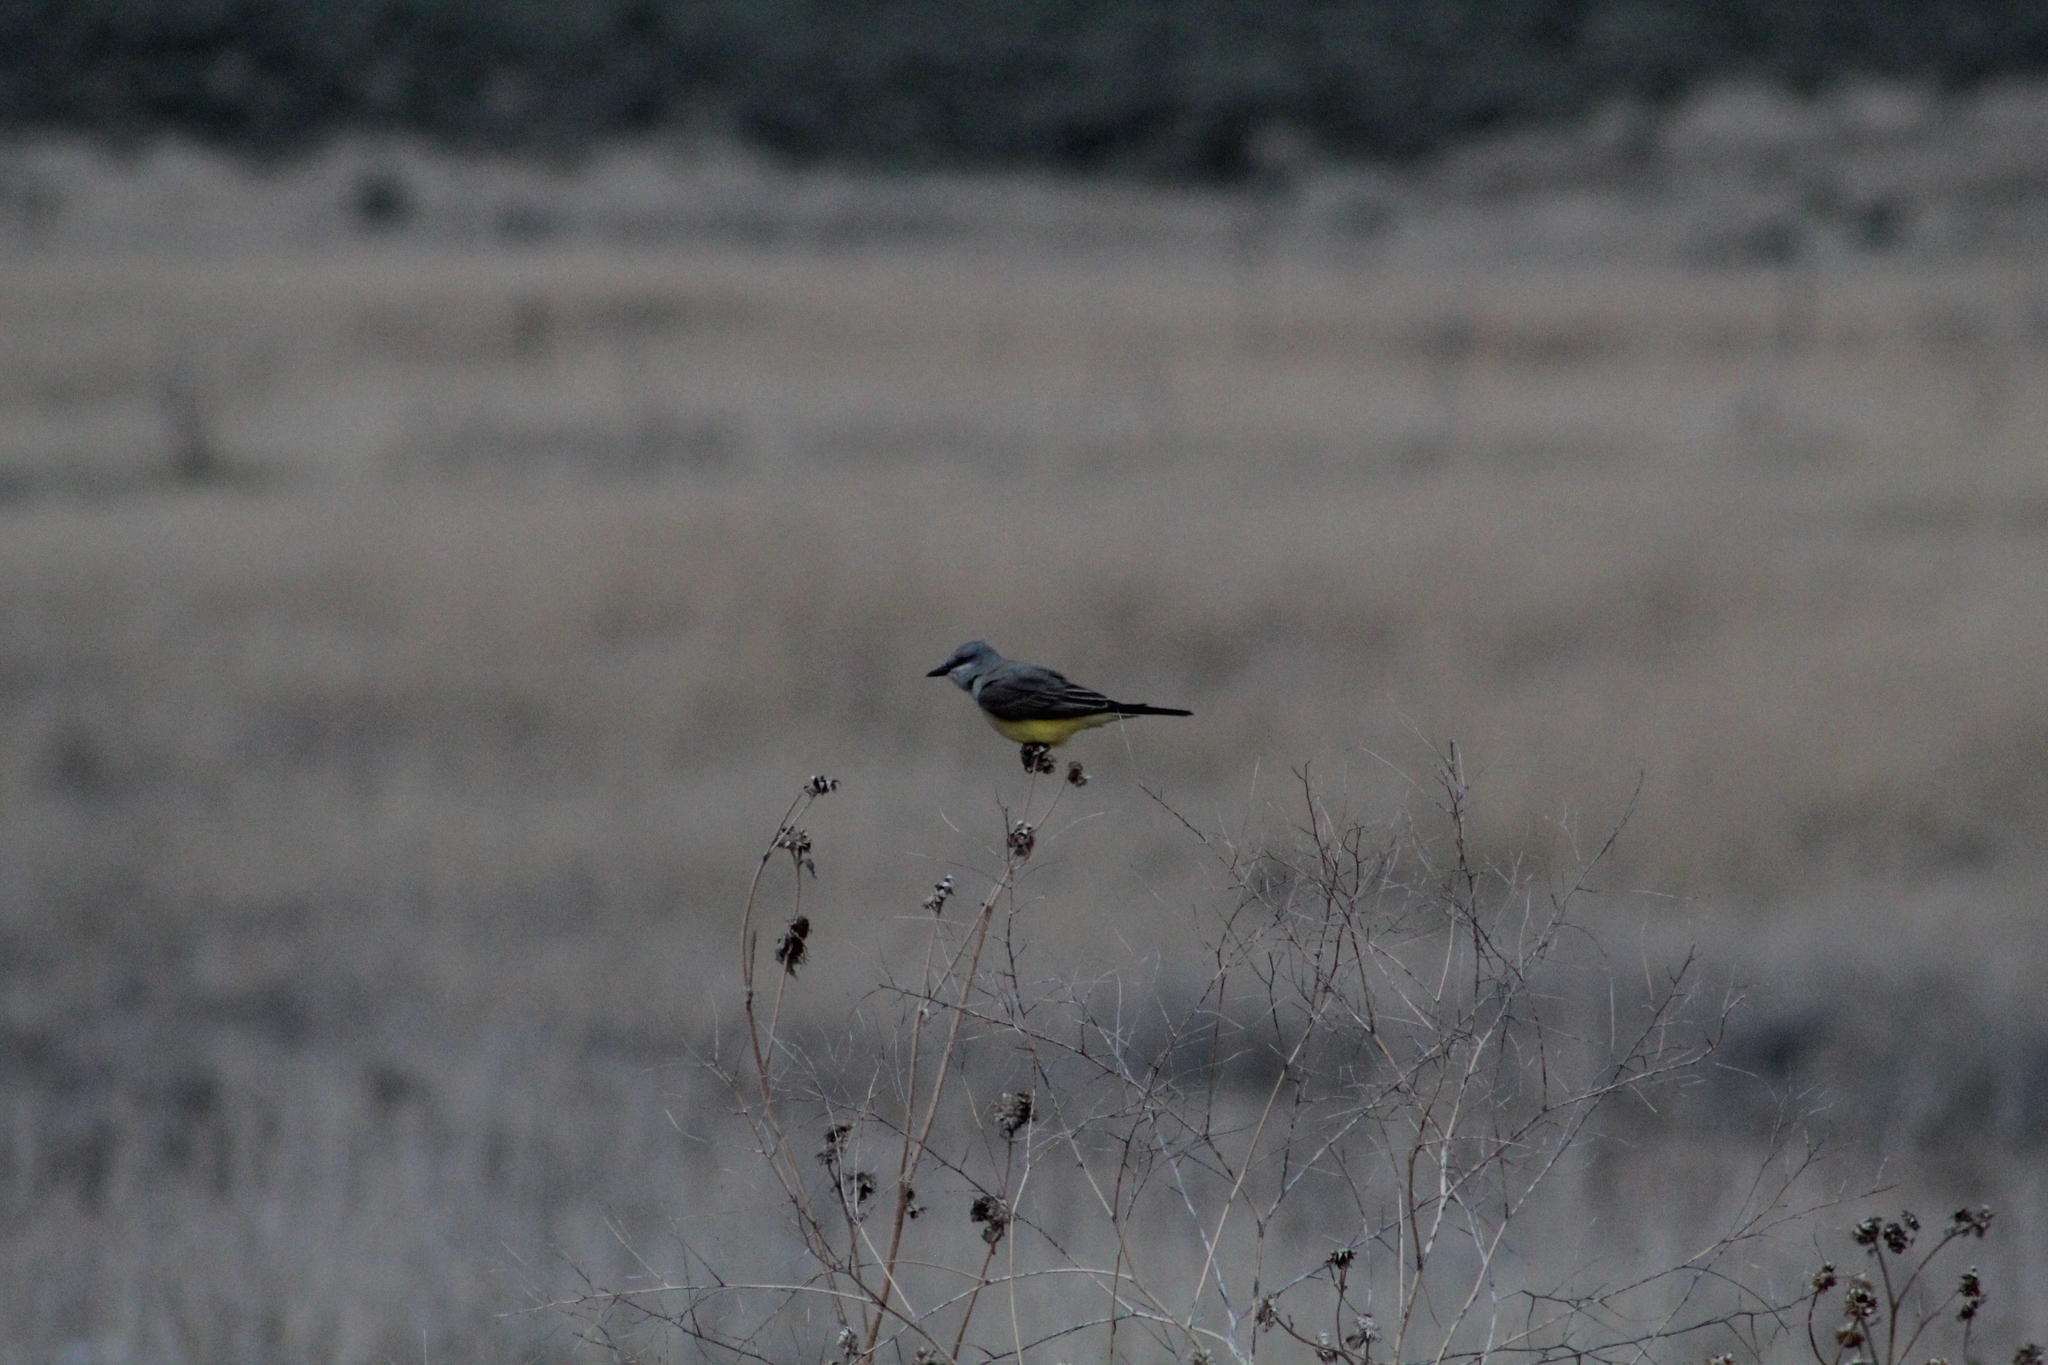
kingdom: Animalia
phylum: Chordata
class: Aves
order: Passeriformes
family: Tyrannidae
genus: Tyrannus
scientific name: Tyrannus verticalis
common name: Western kingbird
